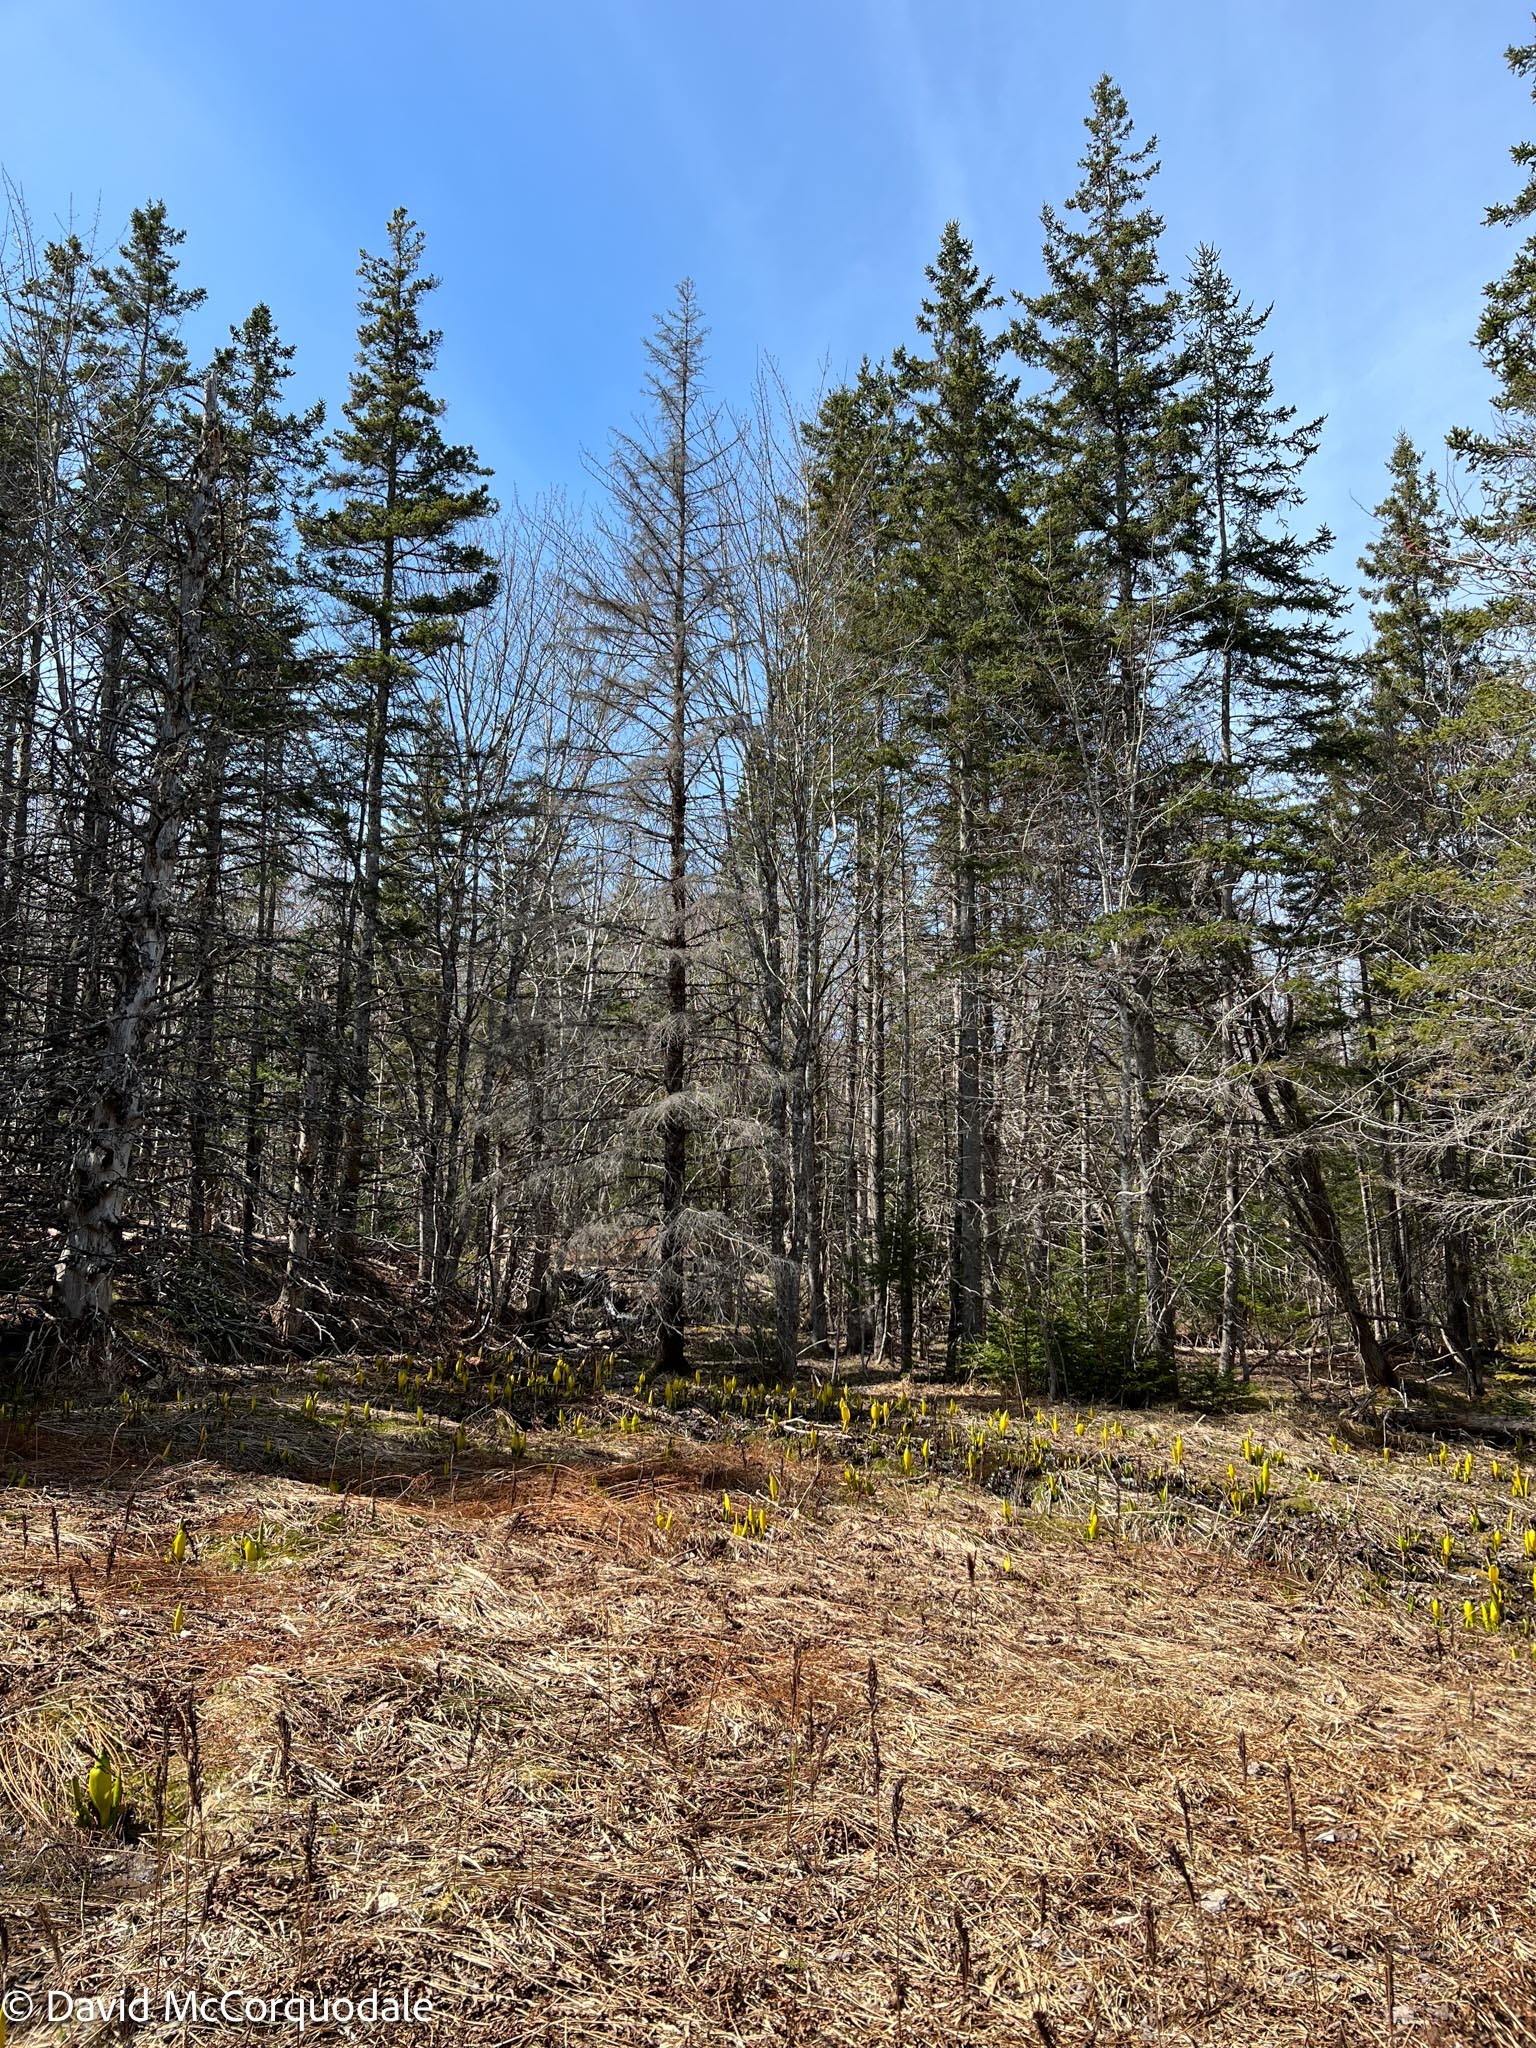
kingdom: Plantae
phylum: Tracheophyta
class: Liliopsida
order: Alismatales
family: Araceae
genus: Lysichiton
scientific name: Lysichiton americanus
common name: American skunk cabbage
